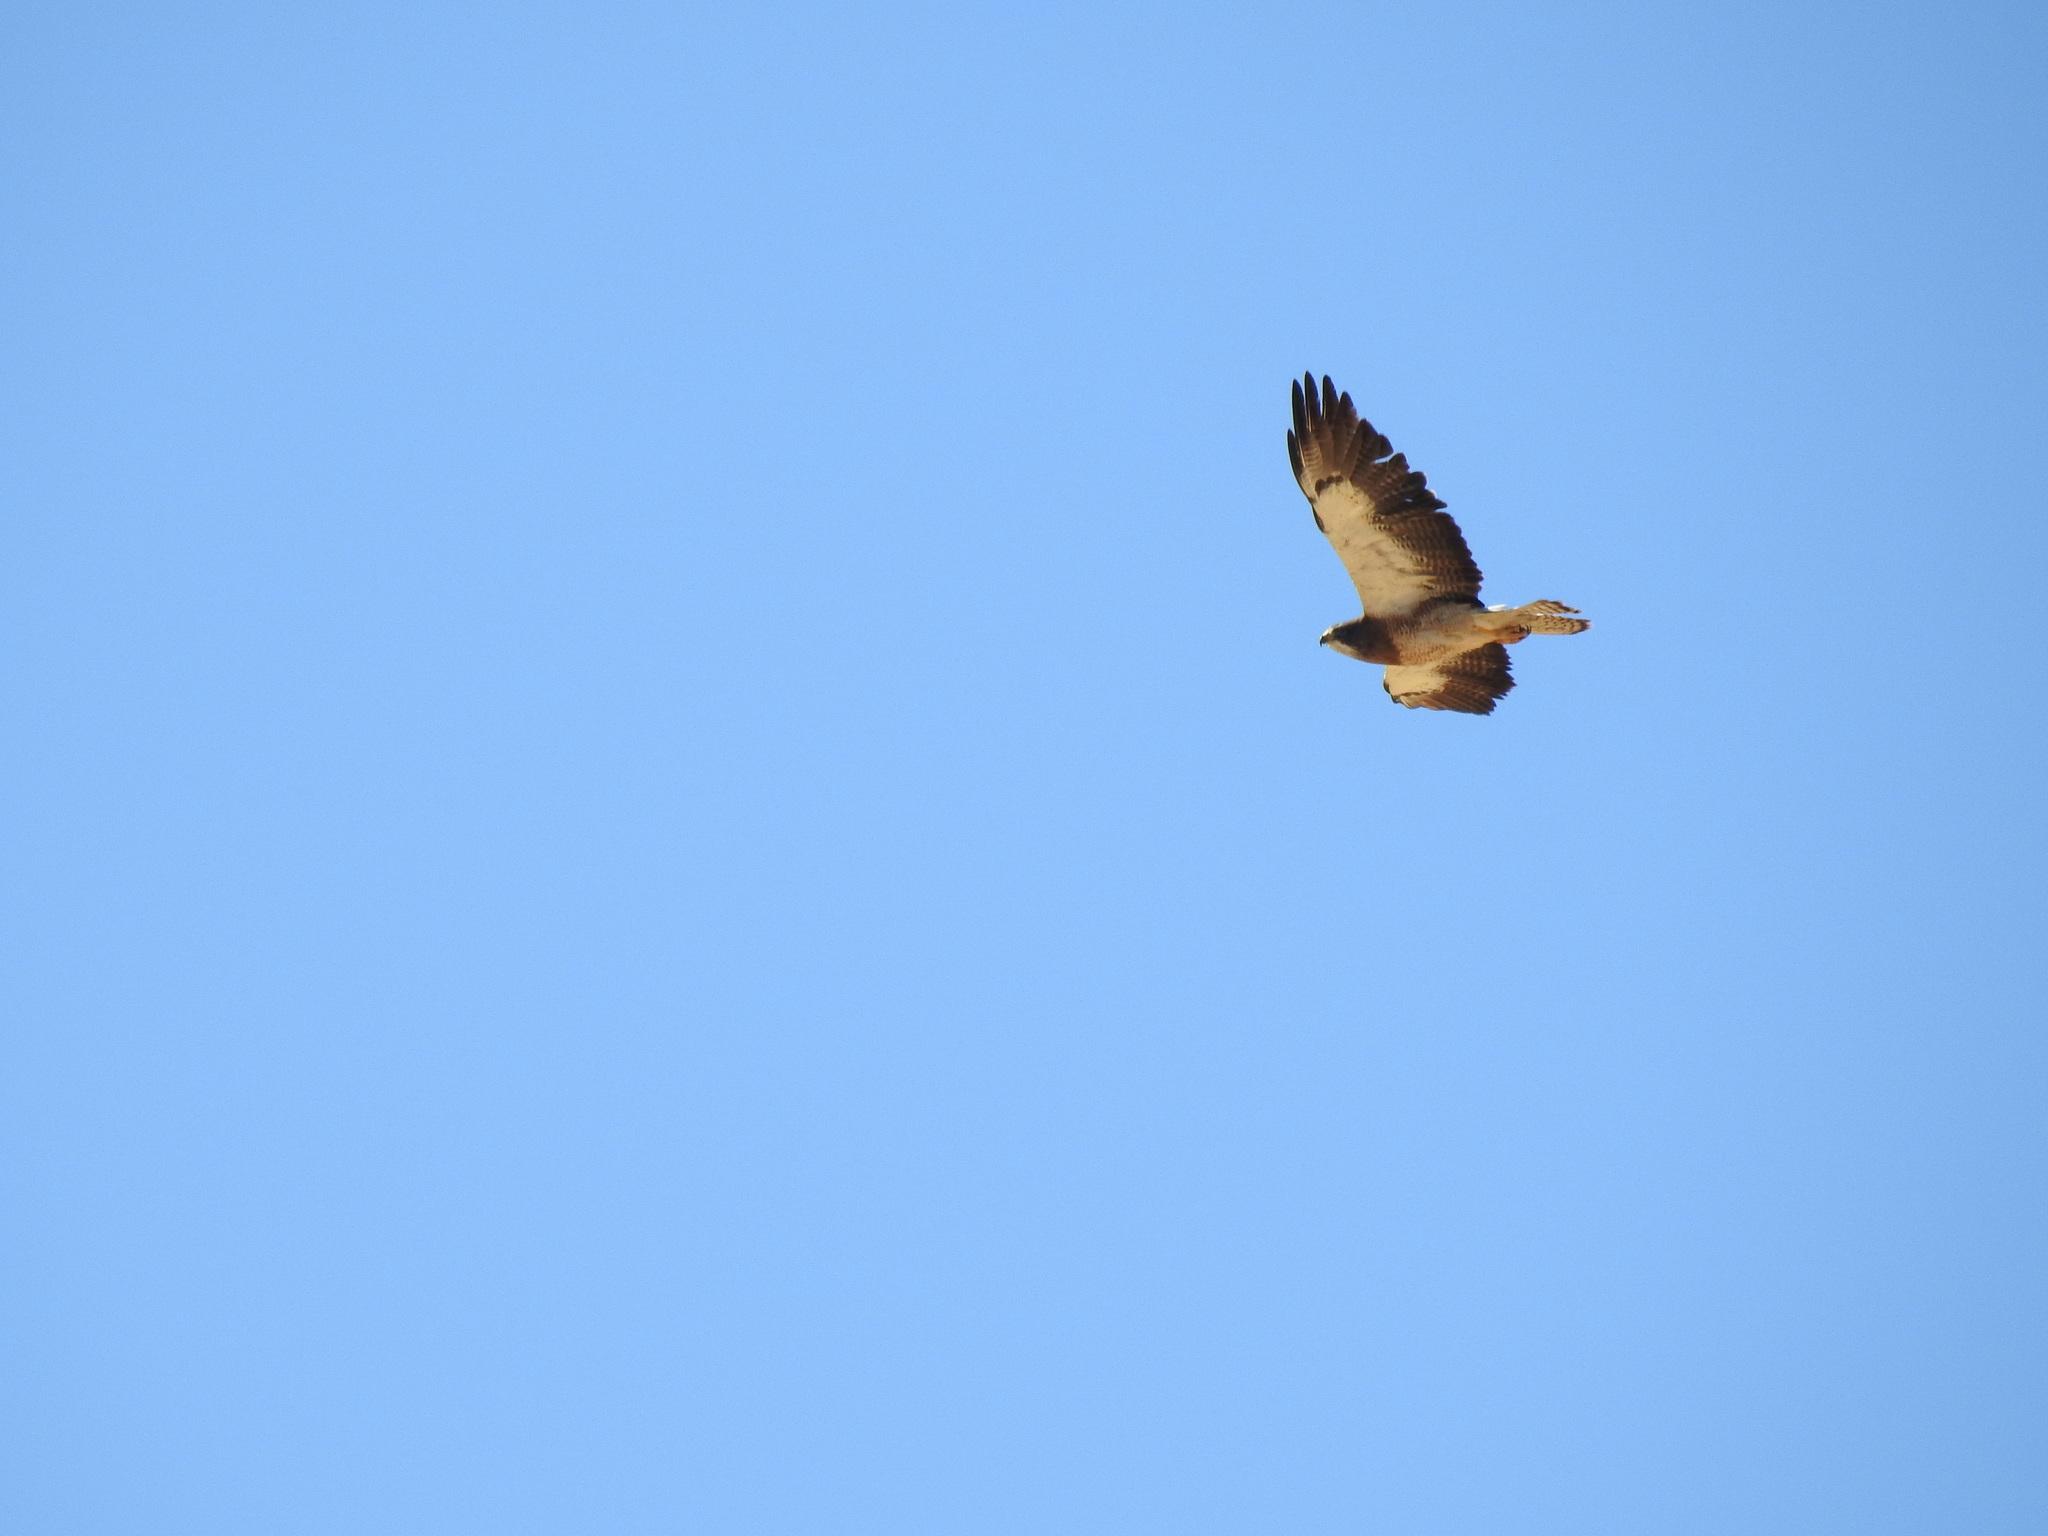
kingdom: Animalia
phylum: Chordata
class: Aves
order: Accipitriformes
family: Accipitridae
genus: Buteo
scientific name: Buteo swainsoni
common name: Swainson's hawk
